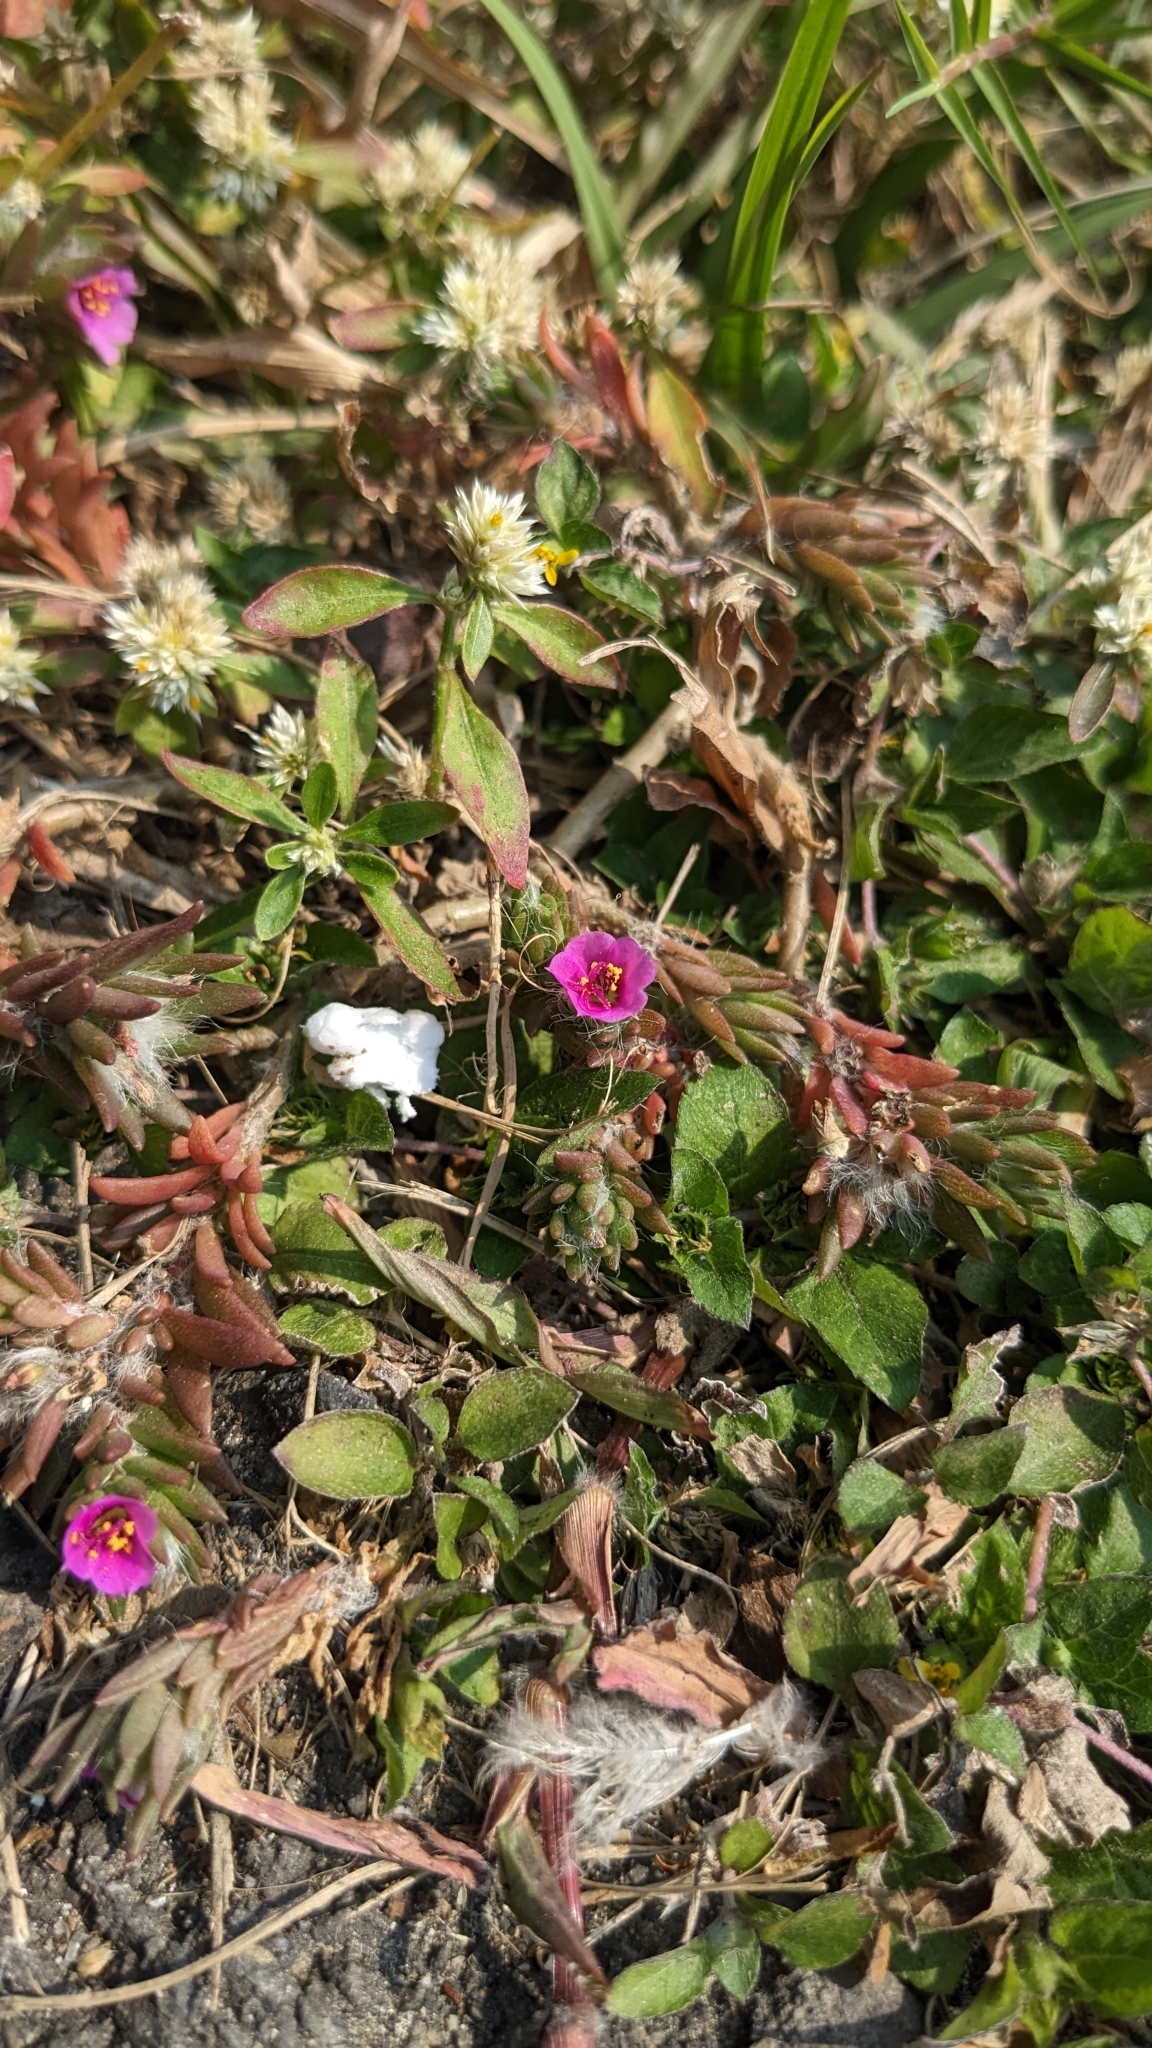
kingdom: Plantae
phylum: Tracheophyta
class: Magnoliopsida
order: Caryophyllales
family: Portulacaceae
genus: Portulaca
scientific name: Portulaca pilosa
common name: Kiss me quick
